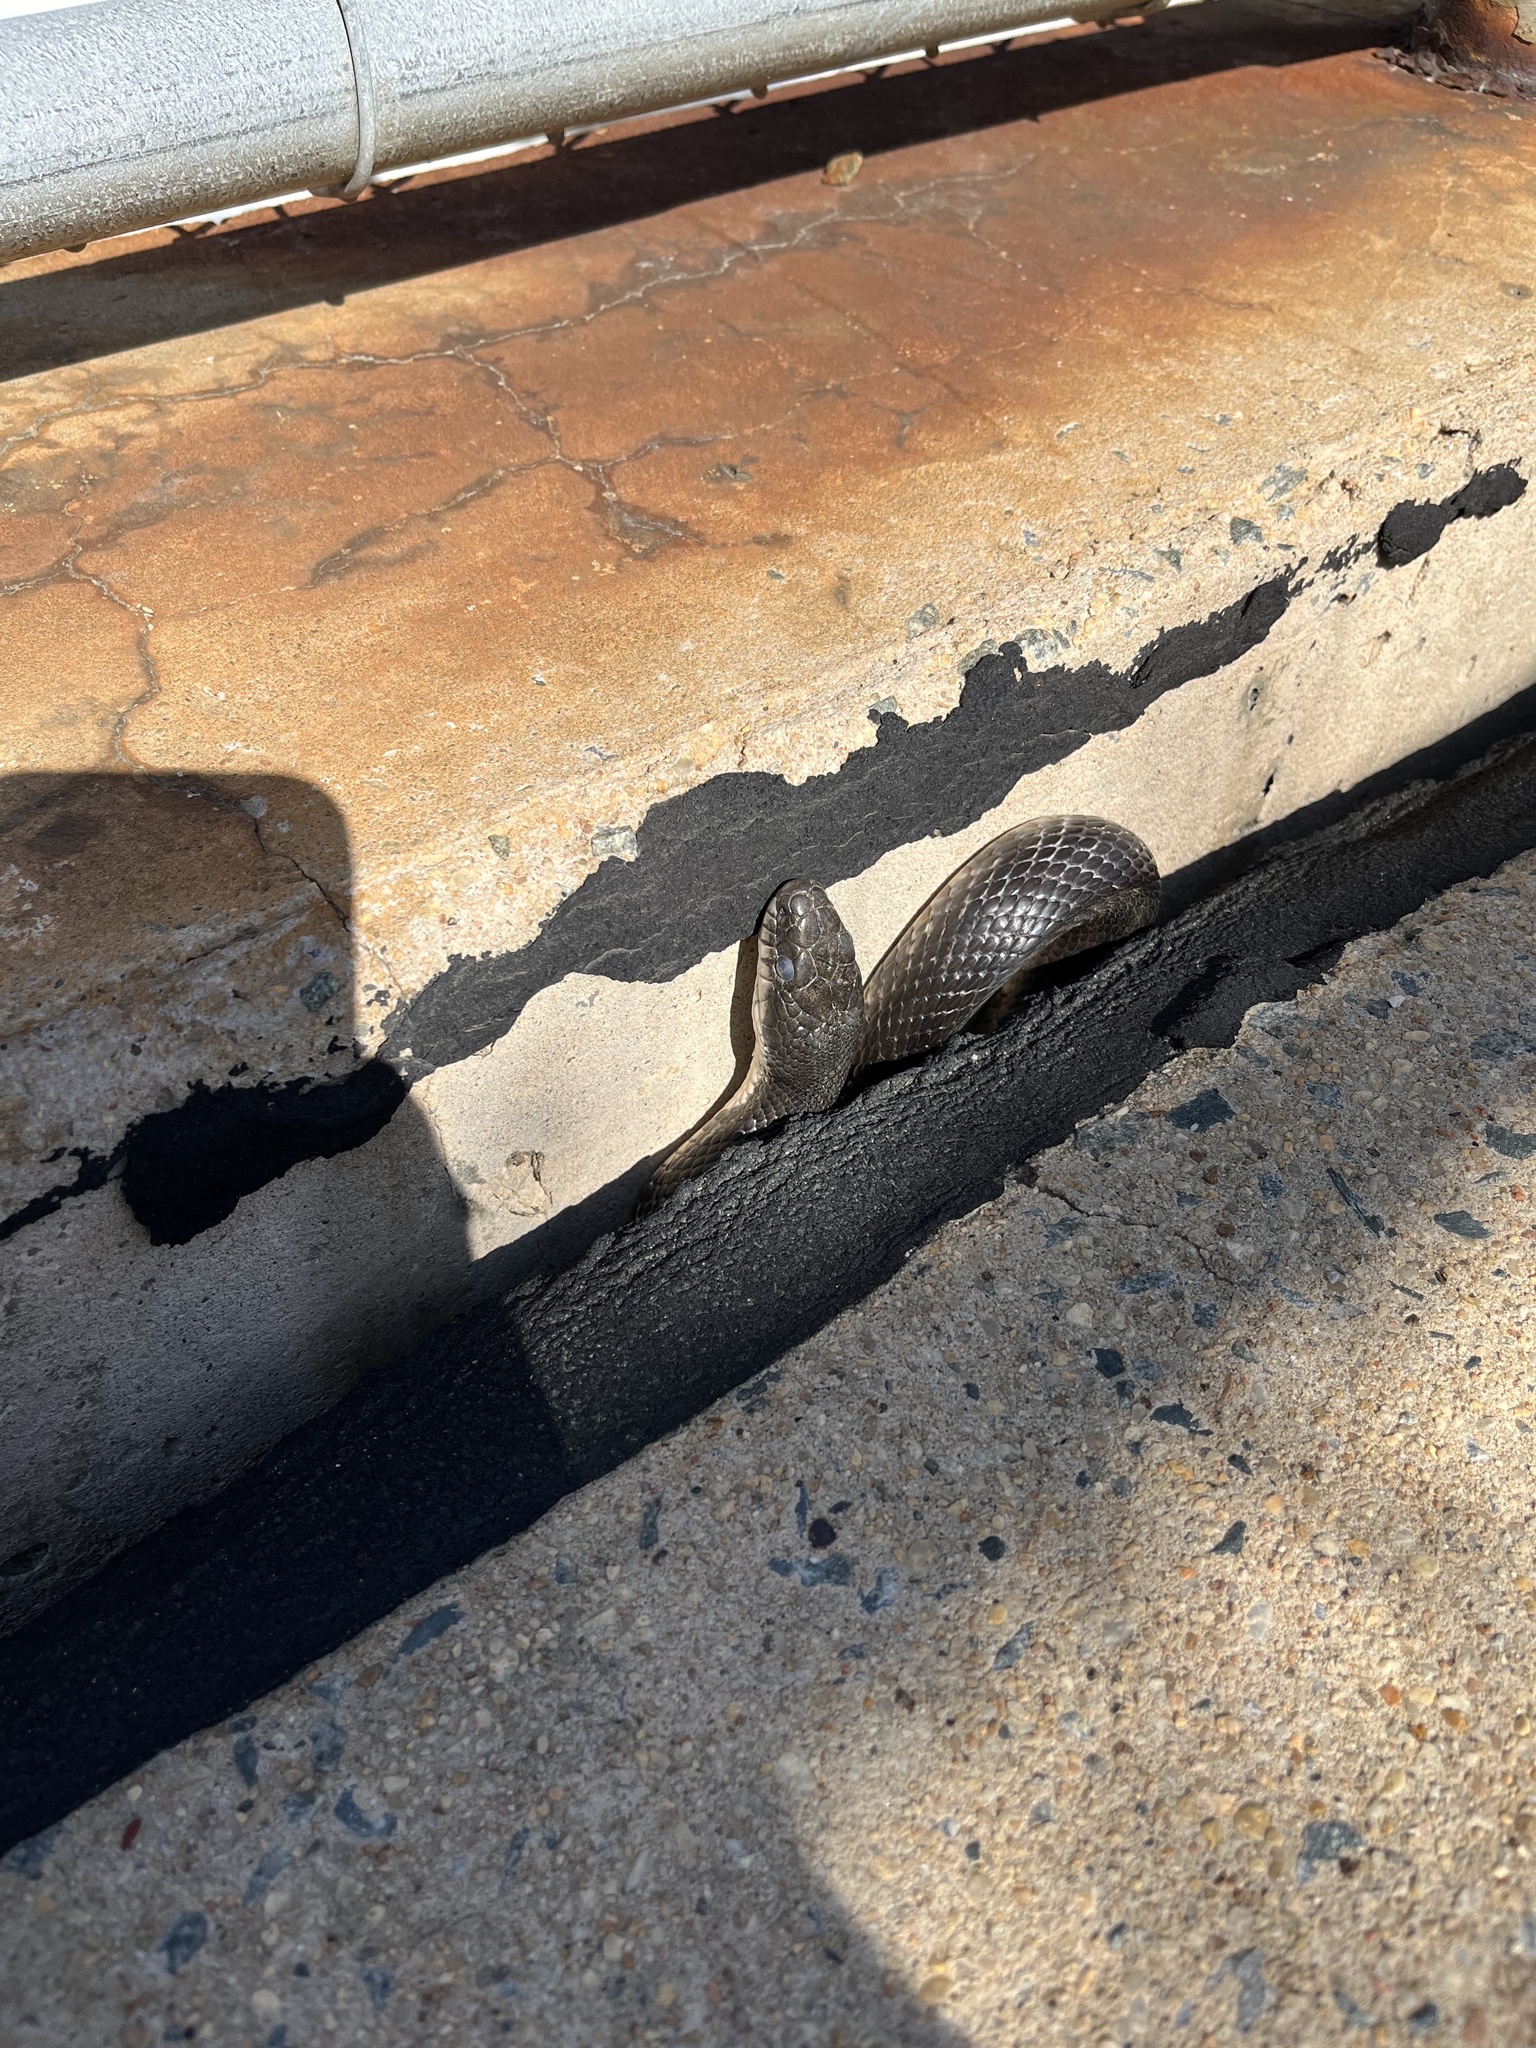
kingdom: Animalia
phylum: Chordata
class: Squamata
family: Colubridae
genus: Pantherophis
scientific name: Pantherophis alleghaniensis
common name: Eastern rat snake
